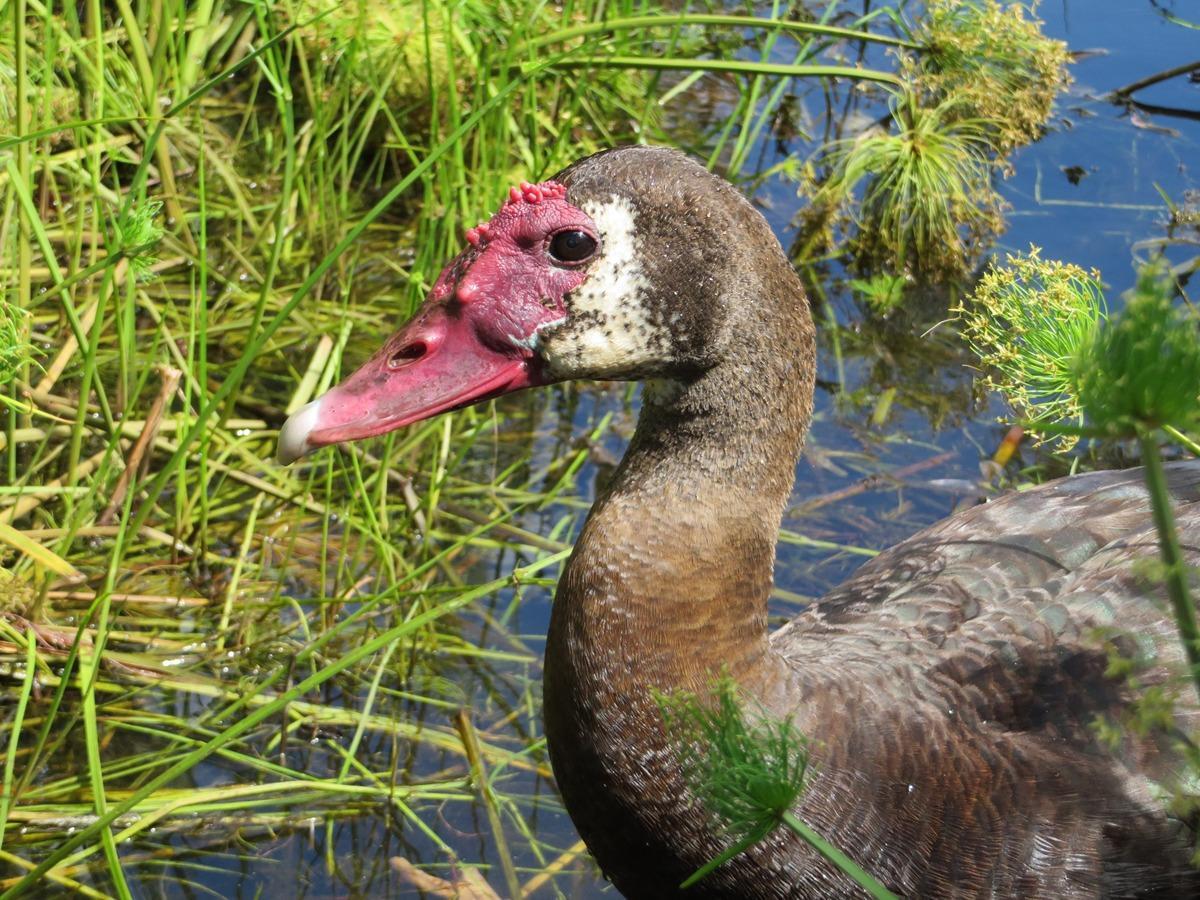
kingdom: Animalia
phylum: Chordata
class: Aves
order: Anseriformes
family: Anatidae
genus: Plectropterus
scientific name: Plectropterus gambensis
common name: Spur-winged goose
